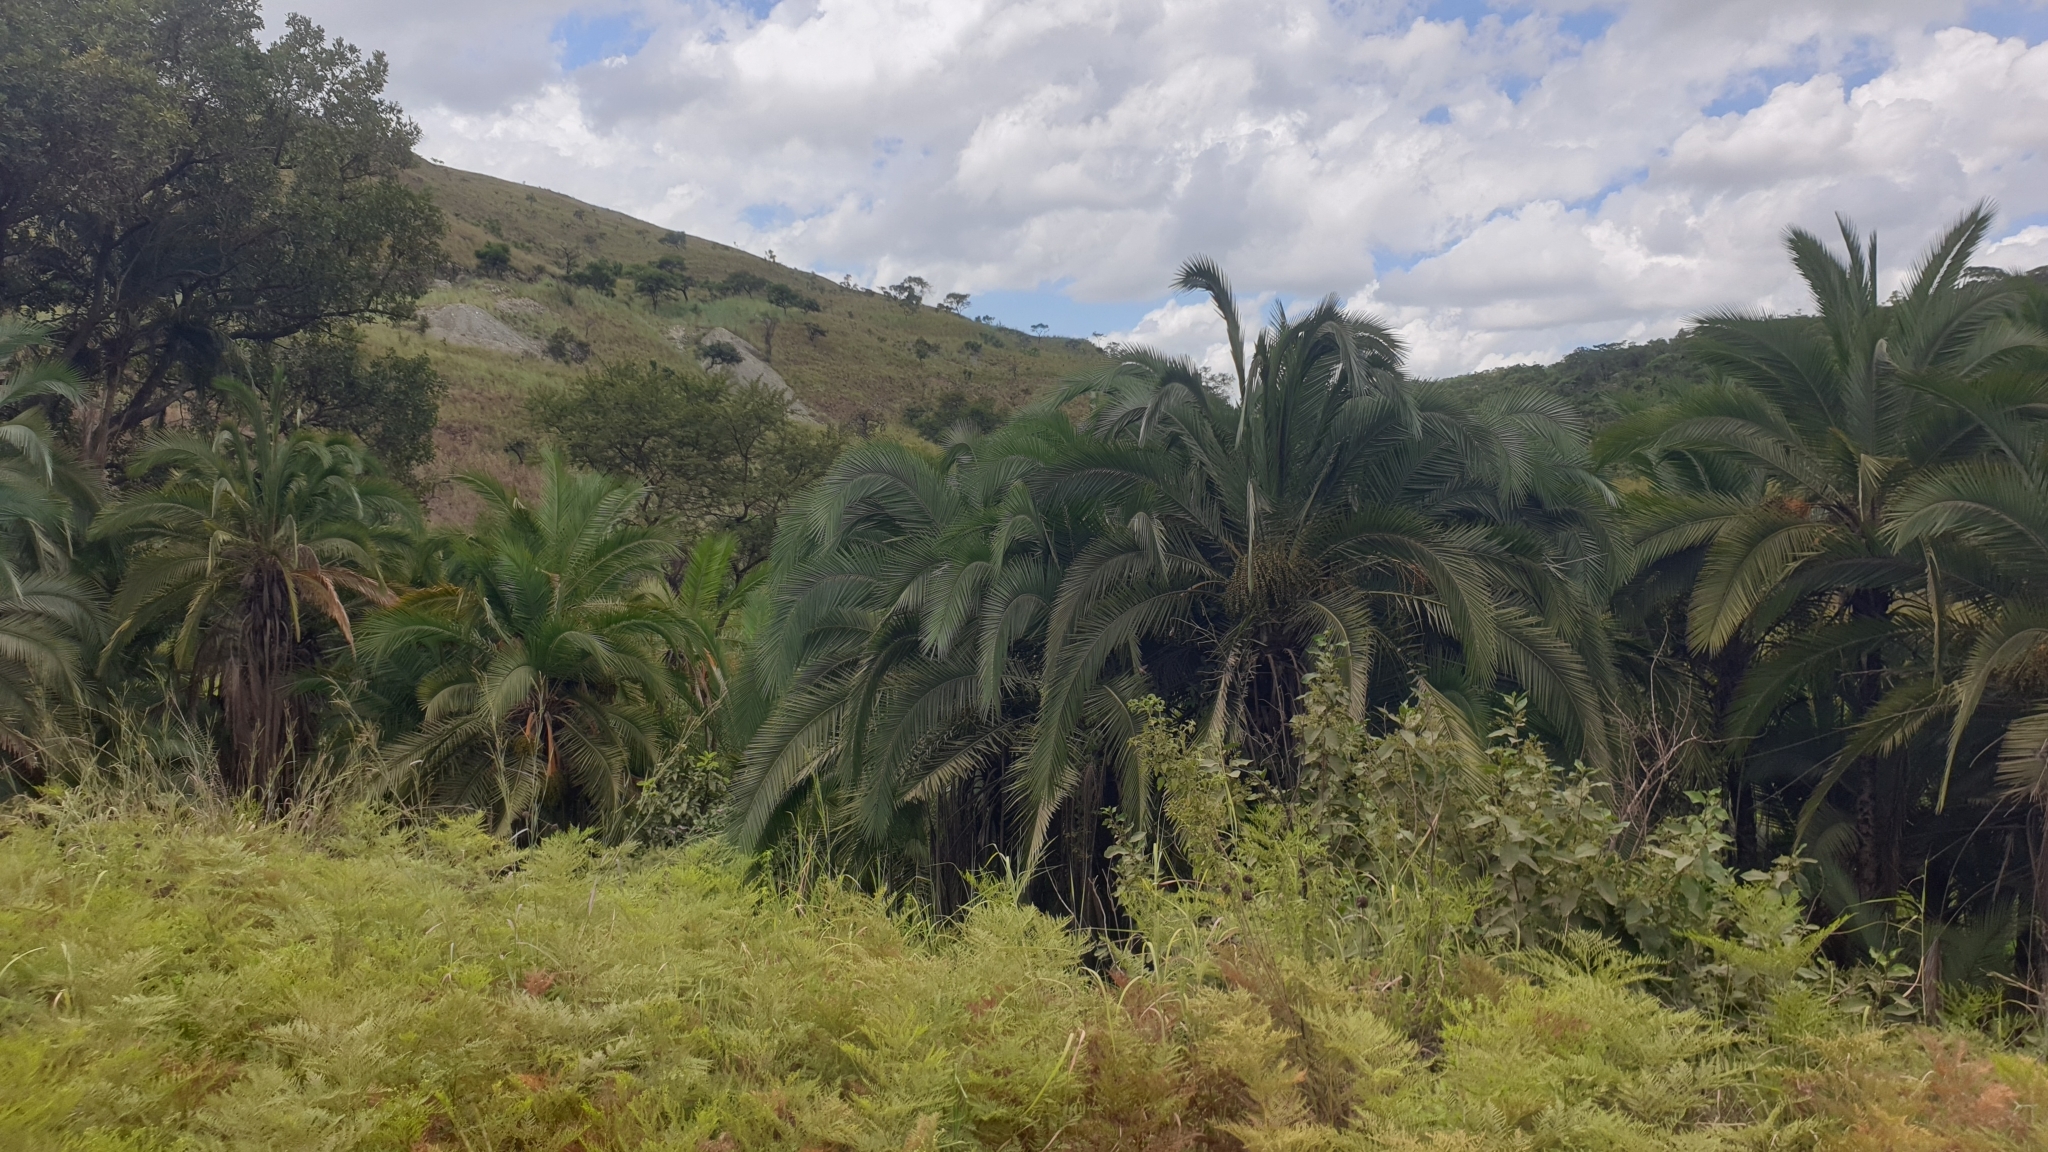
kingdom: Plantae
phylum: Tracheophyta
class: Liliopsida
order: Arecales
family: Arecaceae
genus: Phoenix
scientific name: Phoenix reclinata
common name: Senegal date palm
